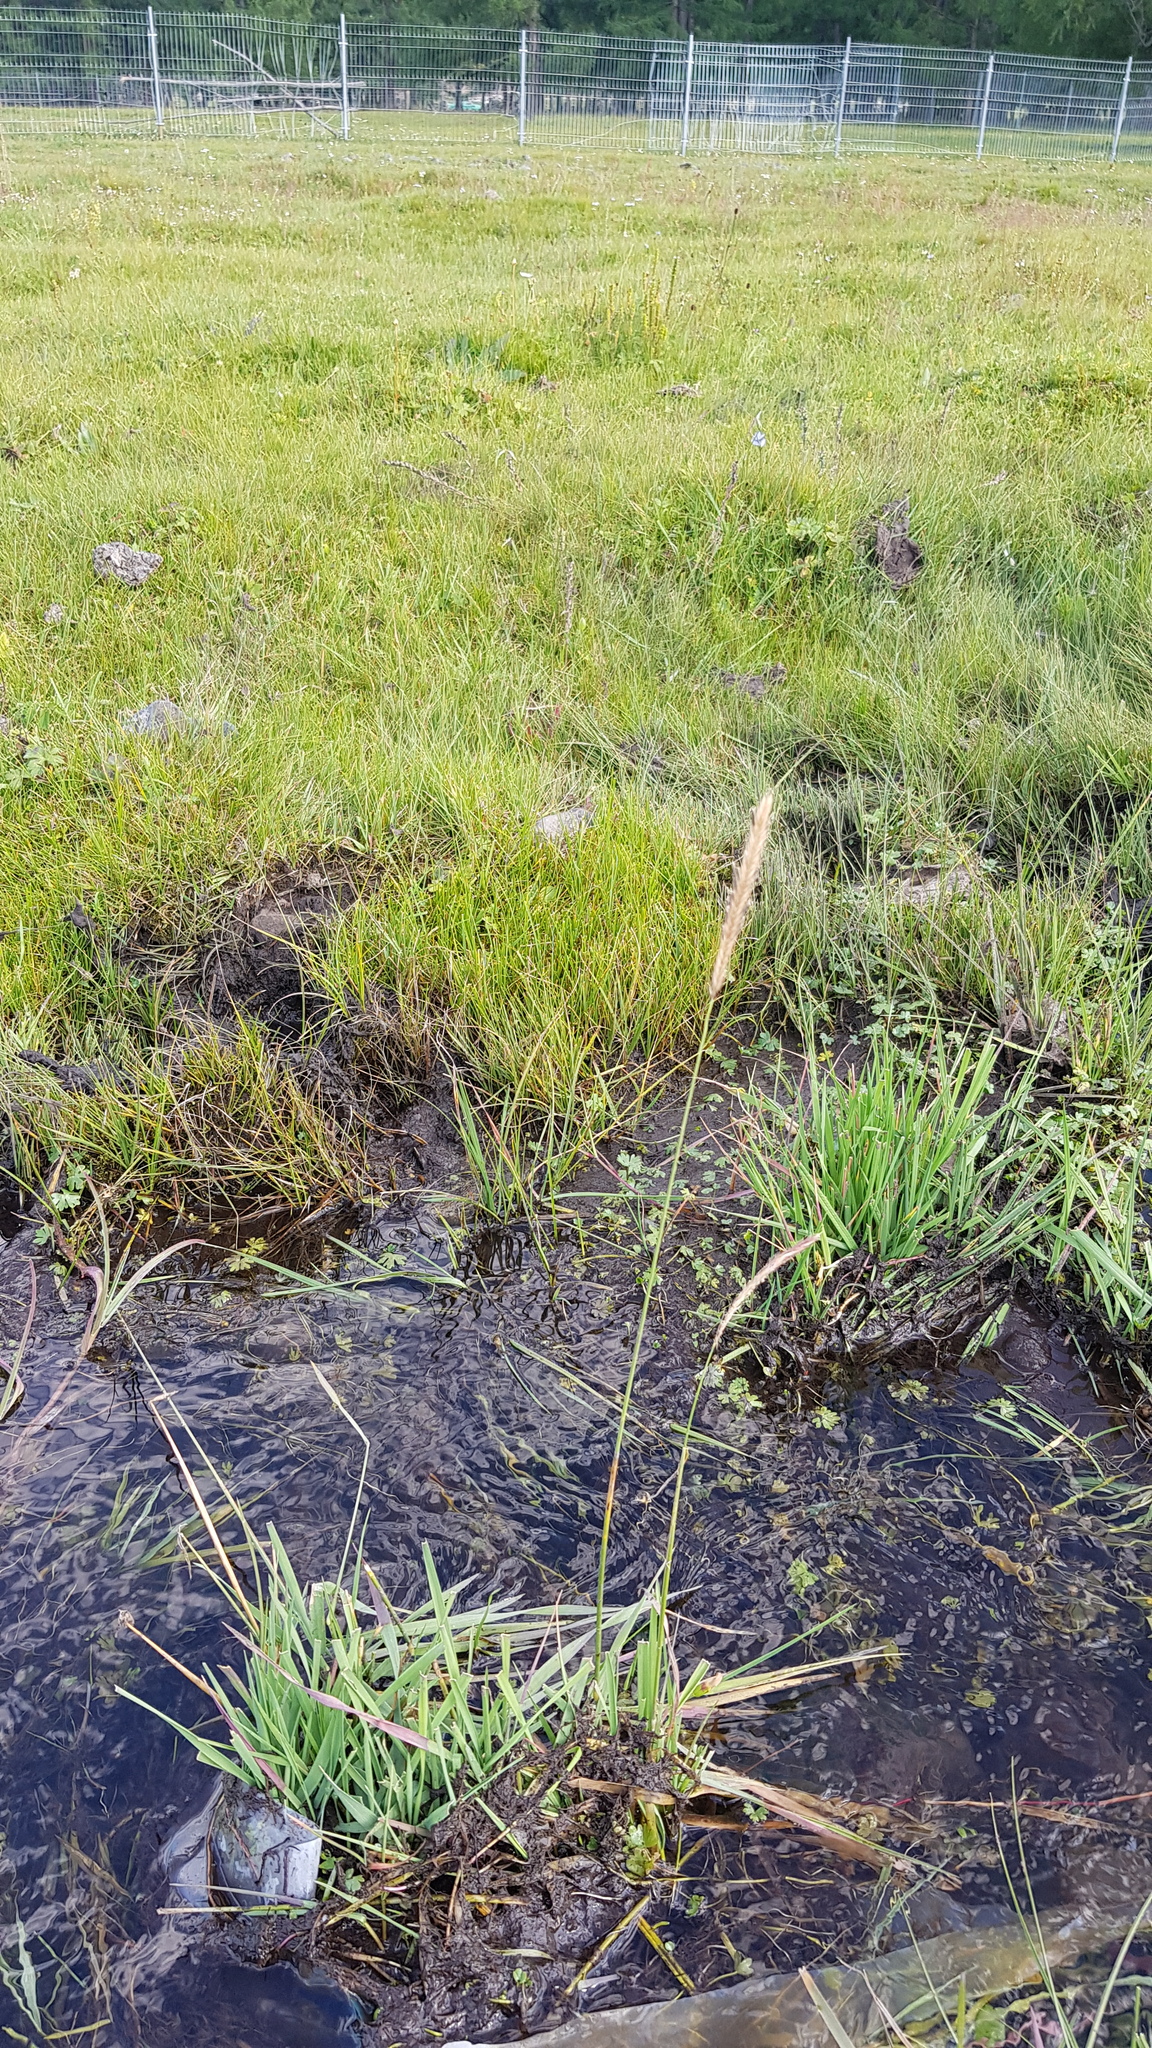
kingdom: Plantae
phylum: Tracheophyta
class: Liliopsida
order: Poales
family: Poaceae
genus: Hordeum
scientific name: Hordeum brevisubulatum
